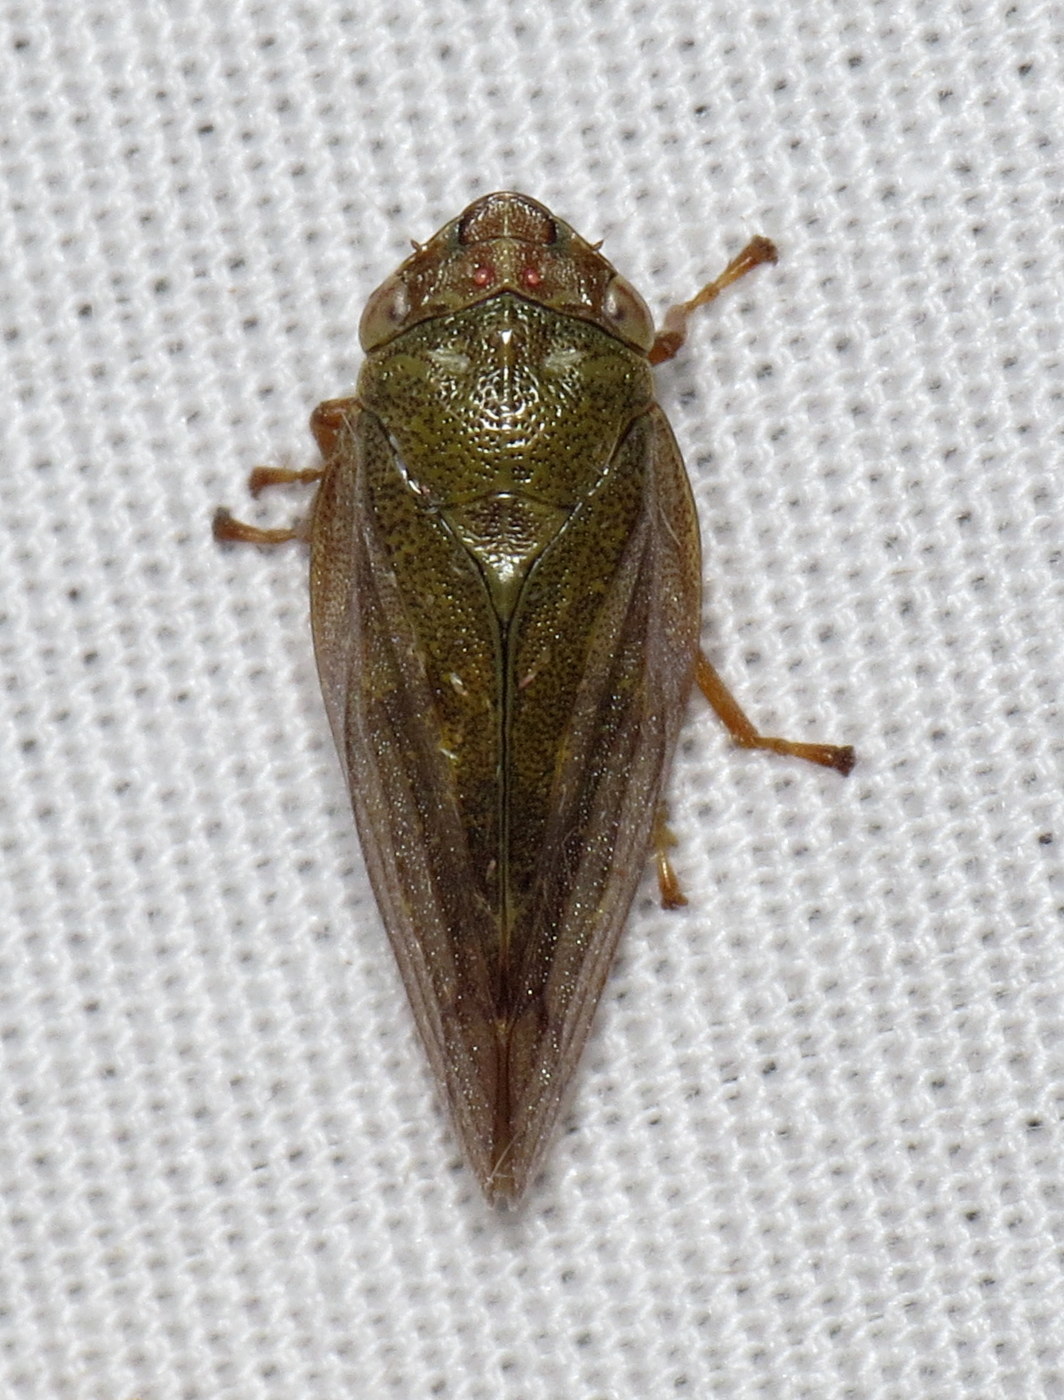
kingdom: Animalia
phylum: Arthropoda
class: Insecta
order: Hemiptera
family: Aphrophoridae
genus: Aphrophora
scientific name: Aphrophora salicina
